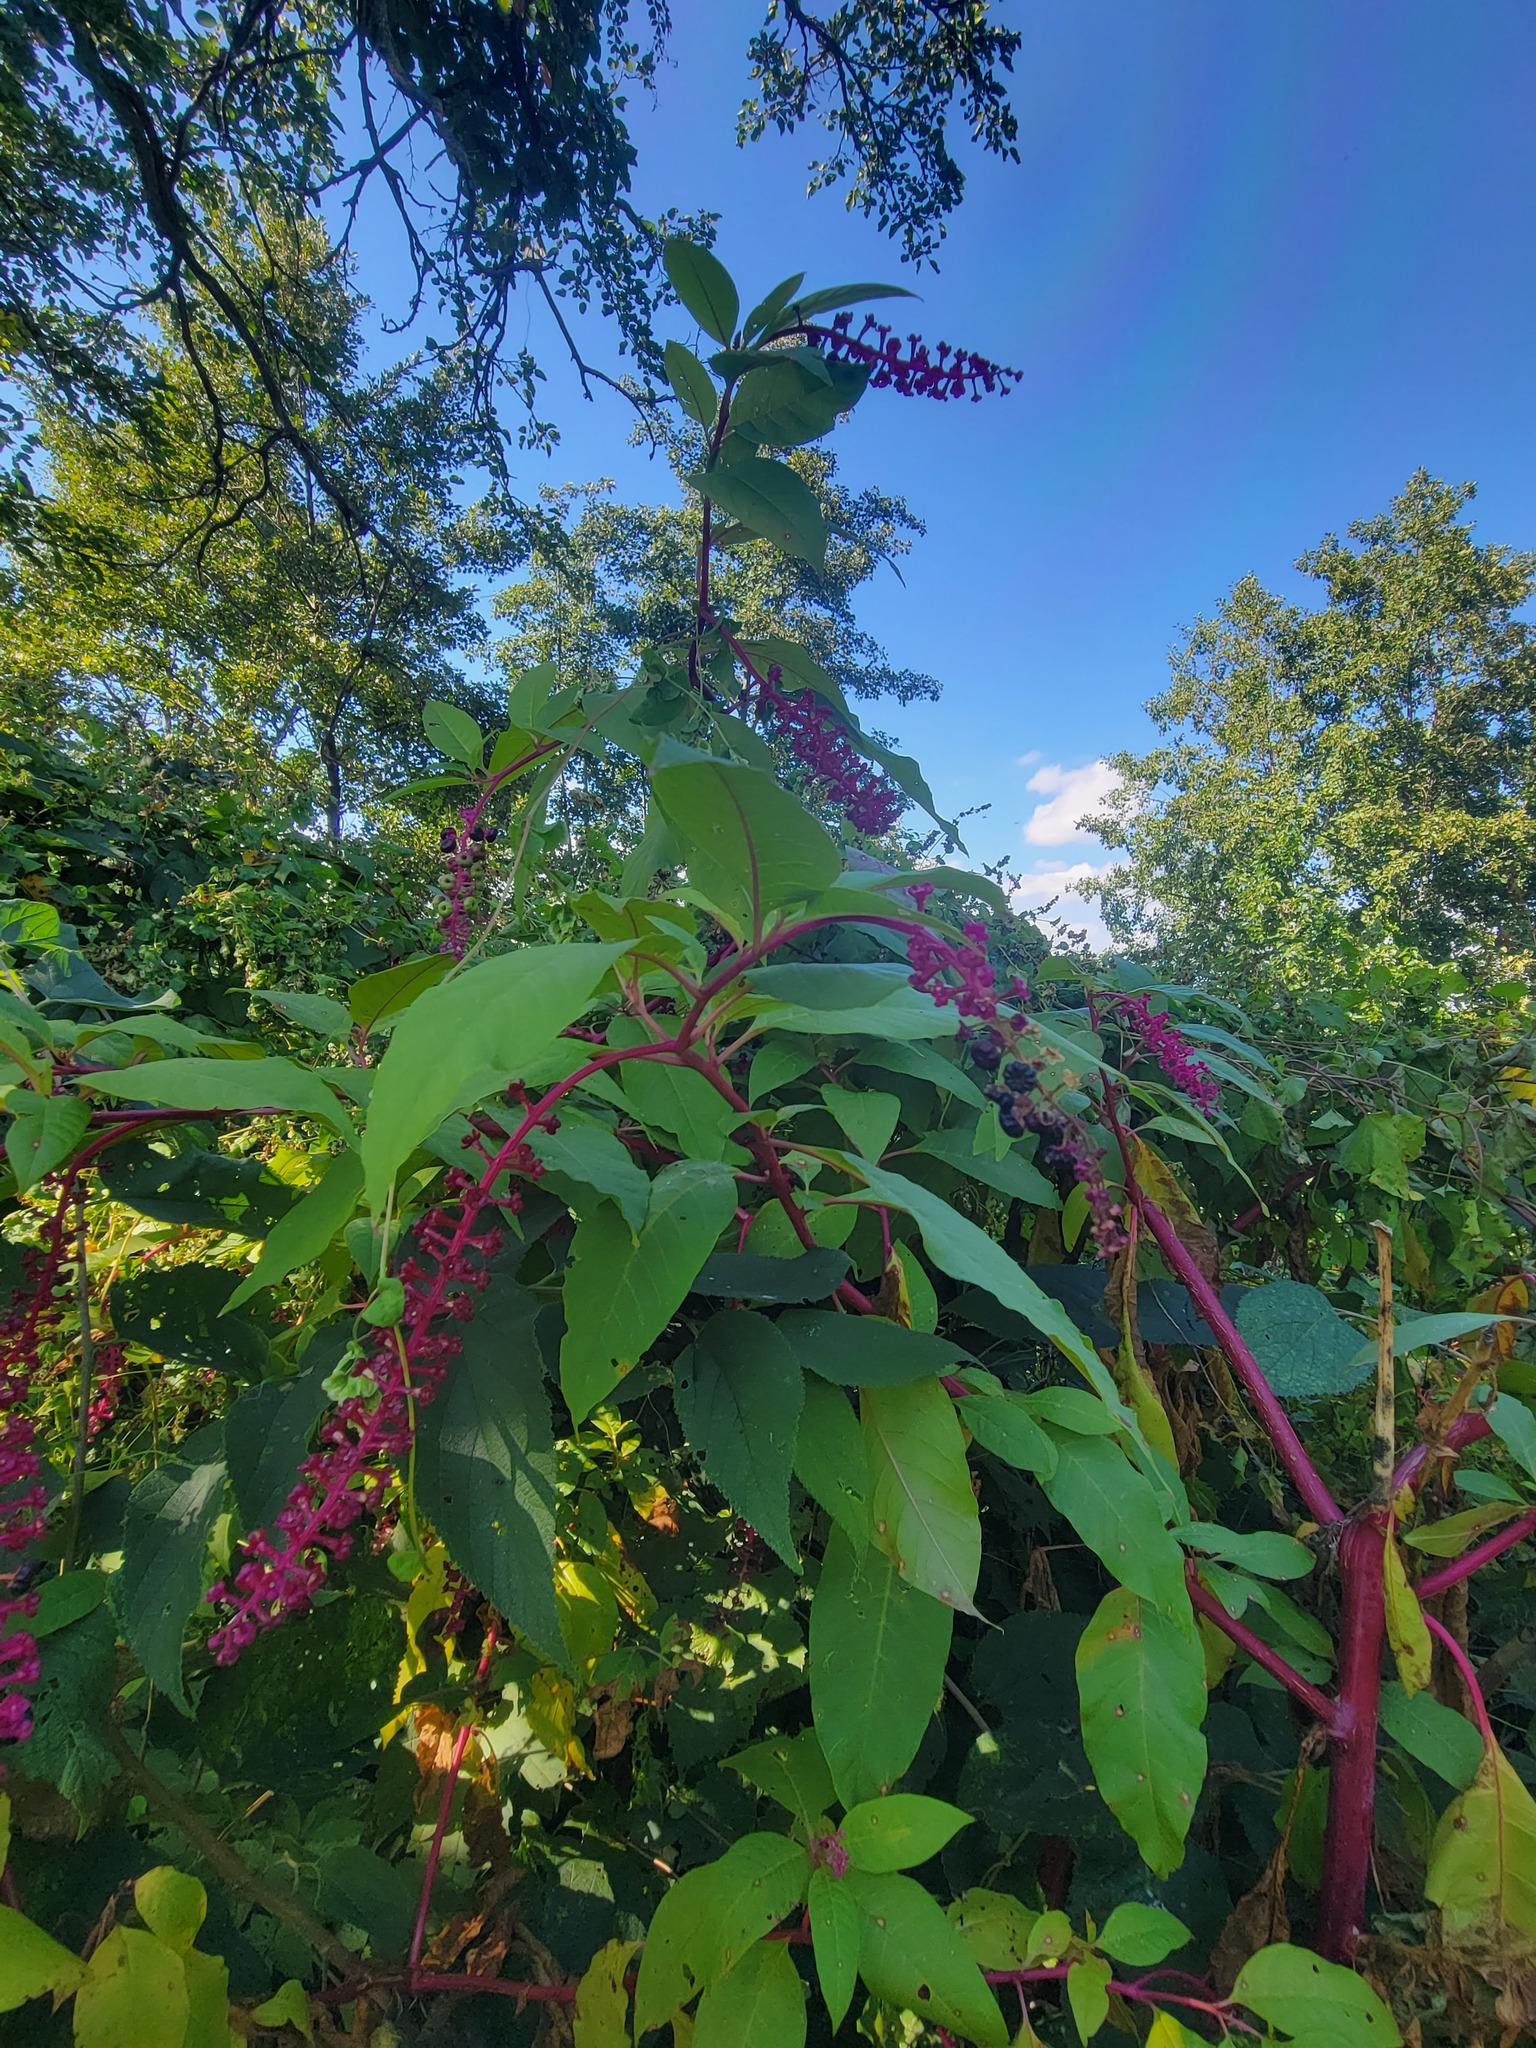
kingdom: Plantae
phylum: Tracheophyta
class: Magnoliopsida
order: Caryophyllales
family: Phytolaccaceae
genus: Phytolacca
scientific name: Phytolacca americana
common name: American pokeweed
